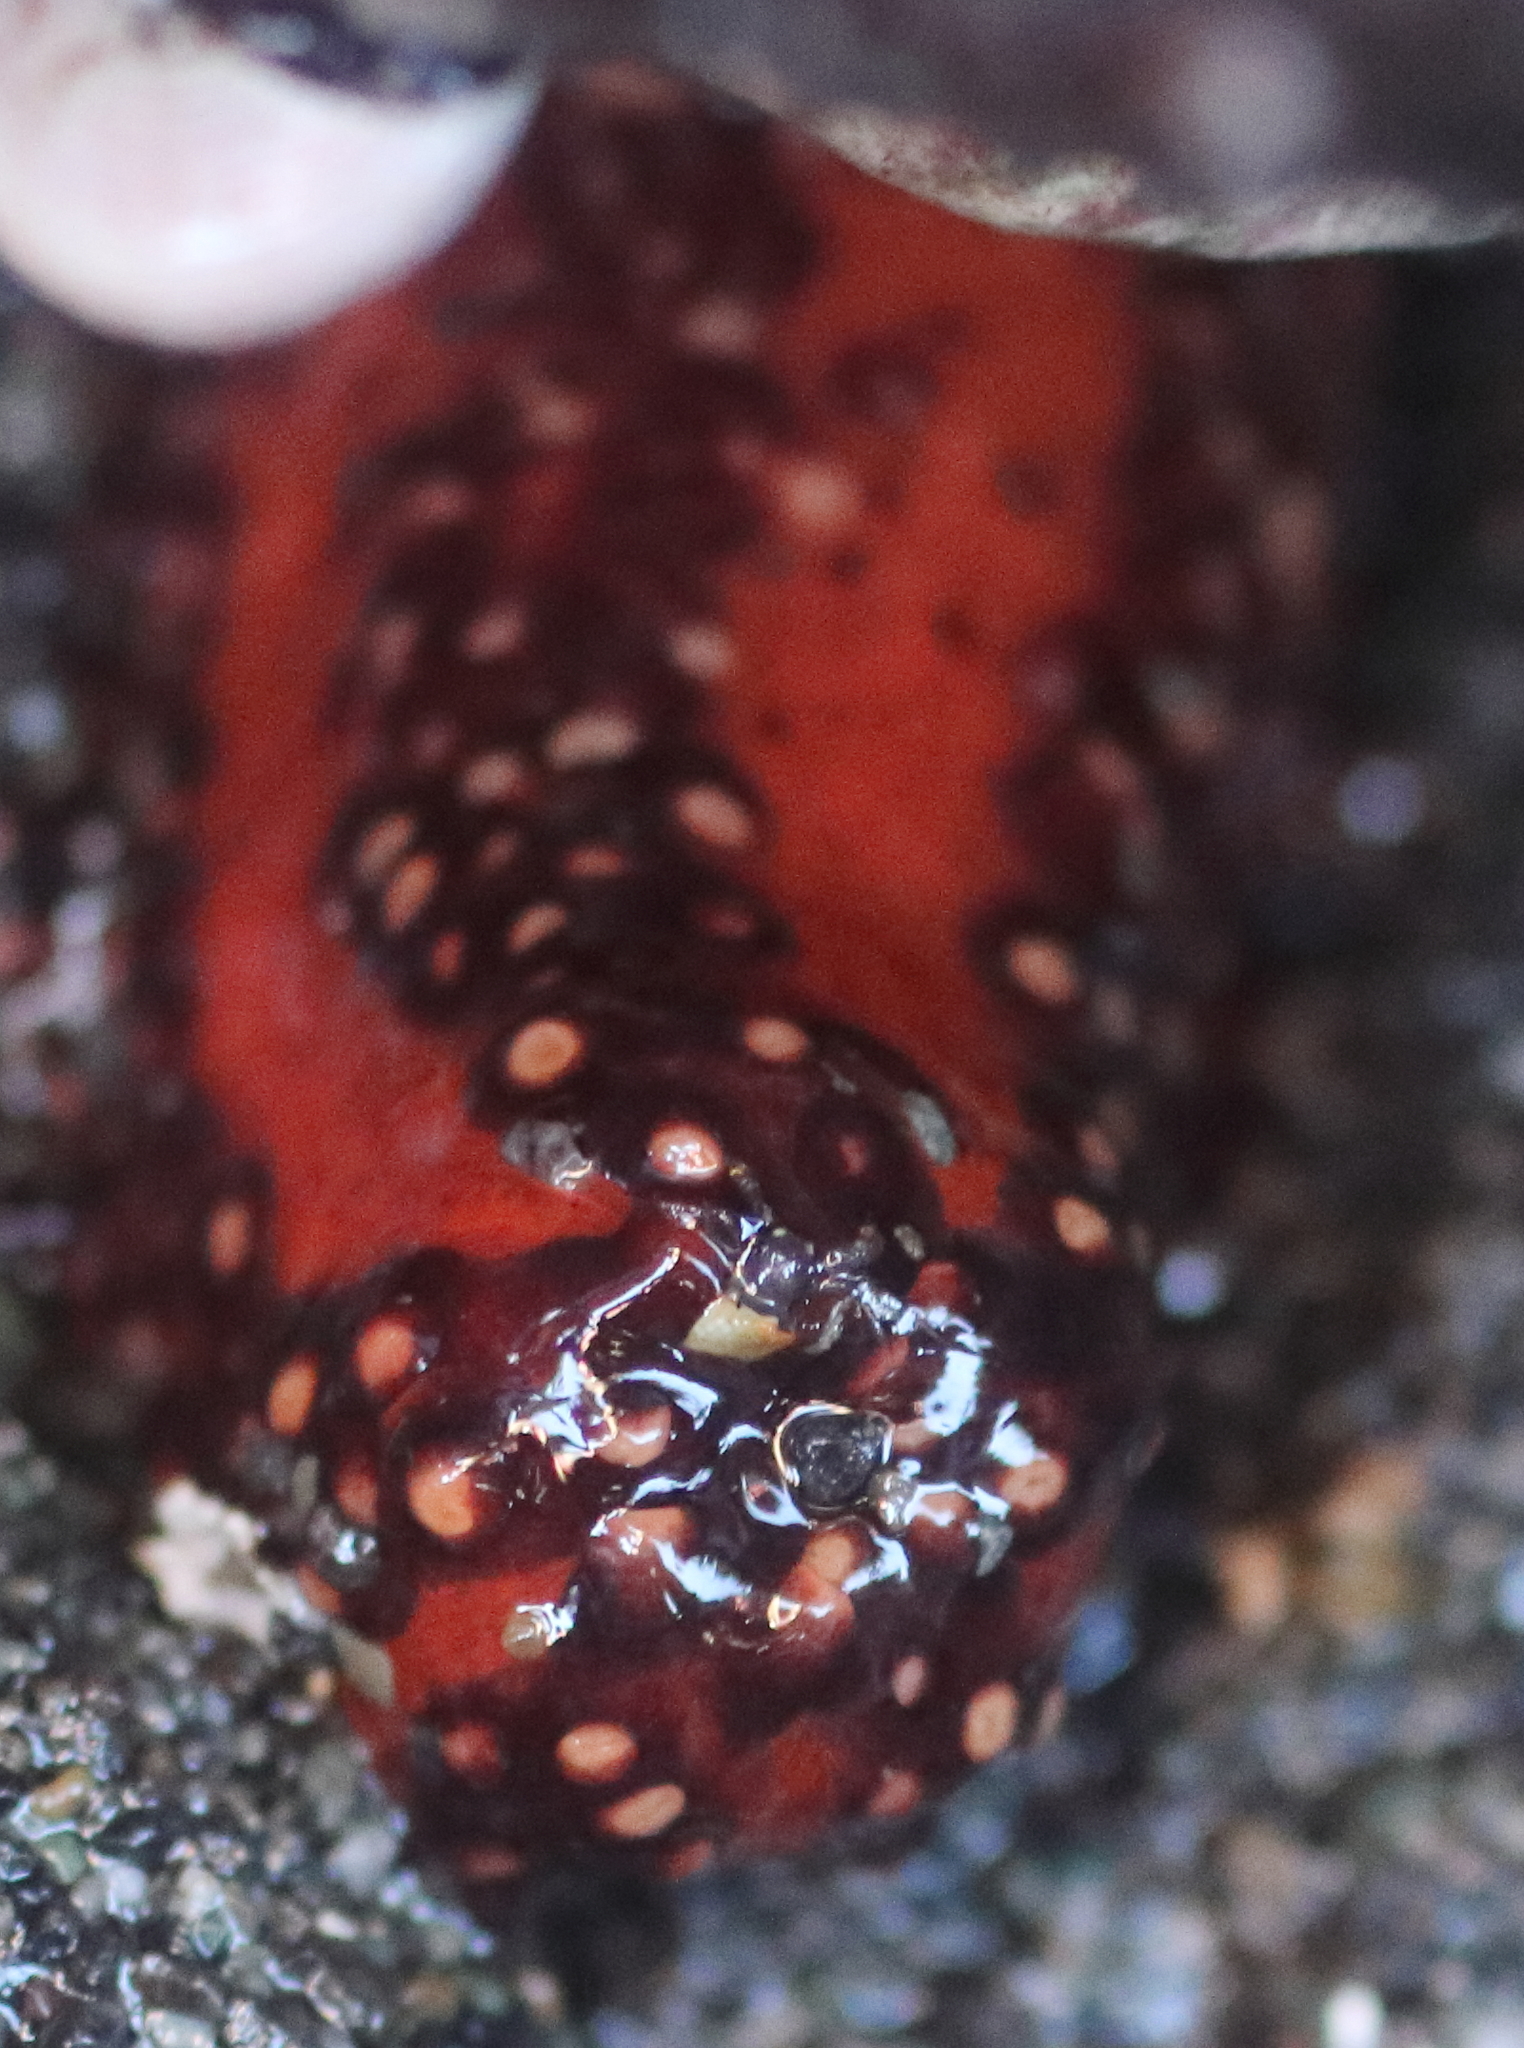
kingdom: Animalia
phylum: Echinodermata
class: Holothuroidea
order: Dendrochirotida
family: Cucumariidae
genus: Cucumaria
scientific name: Cucumaria miniata
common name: Orange sea cucumber
